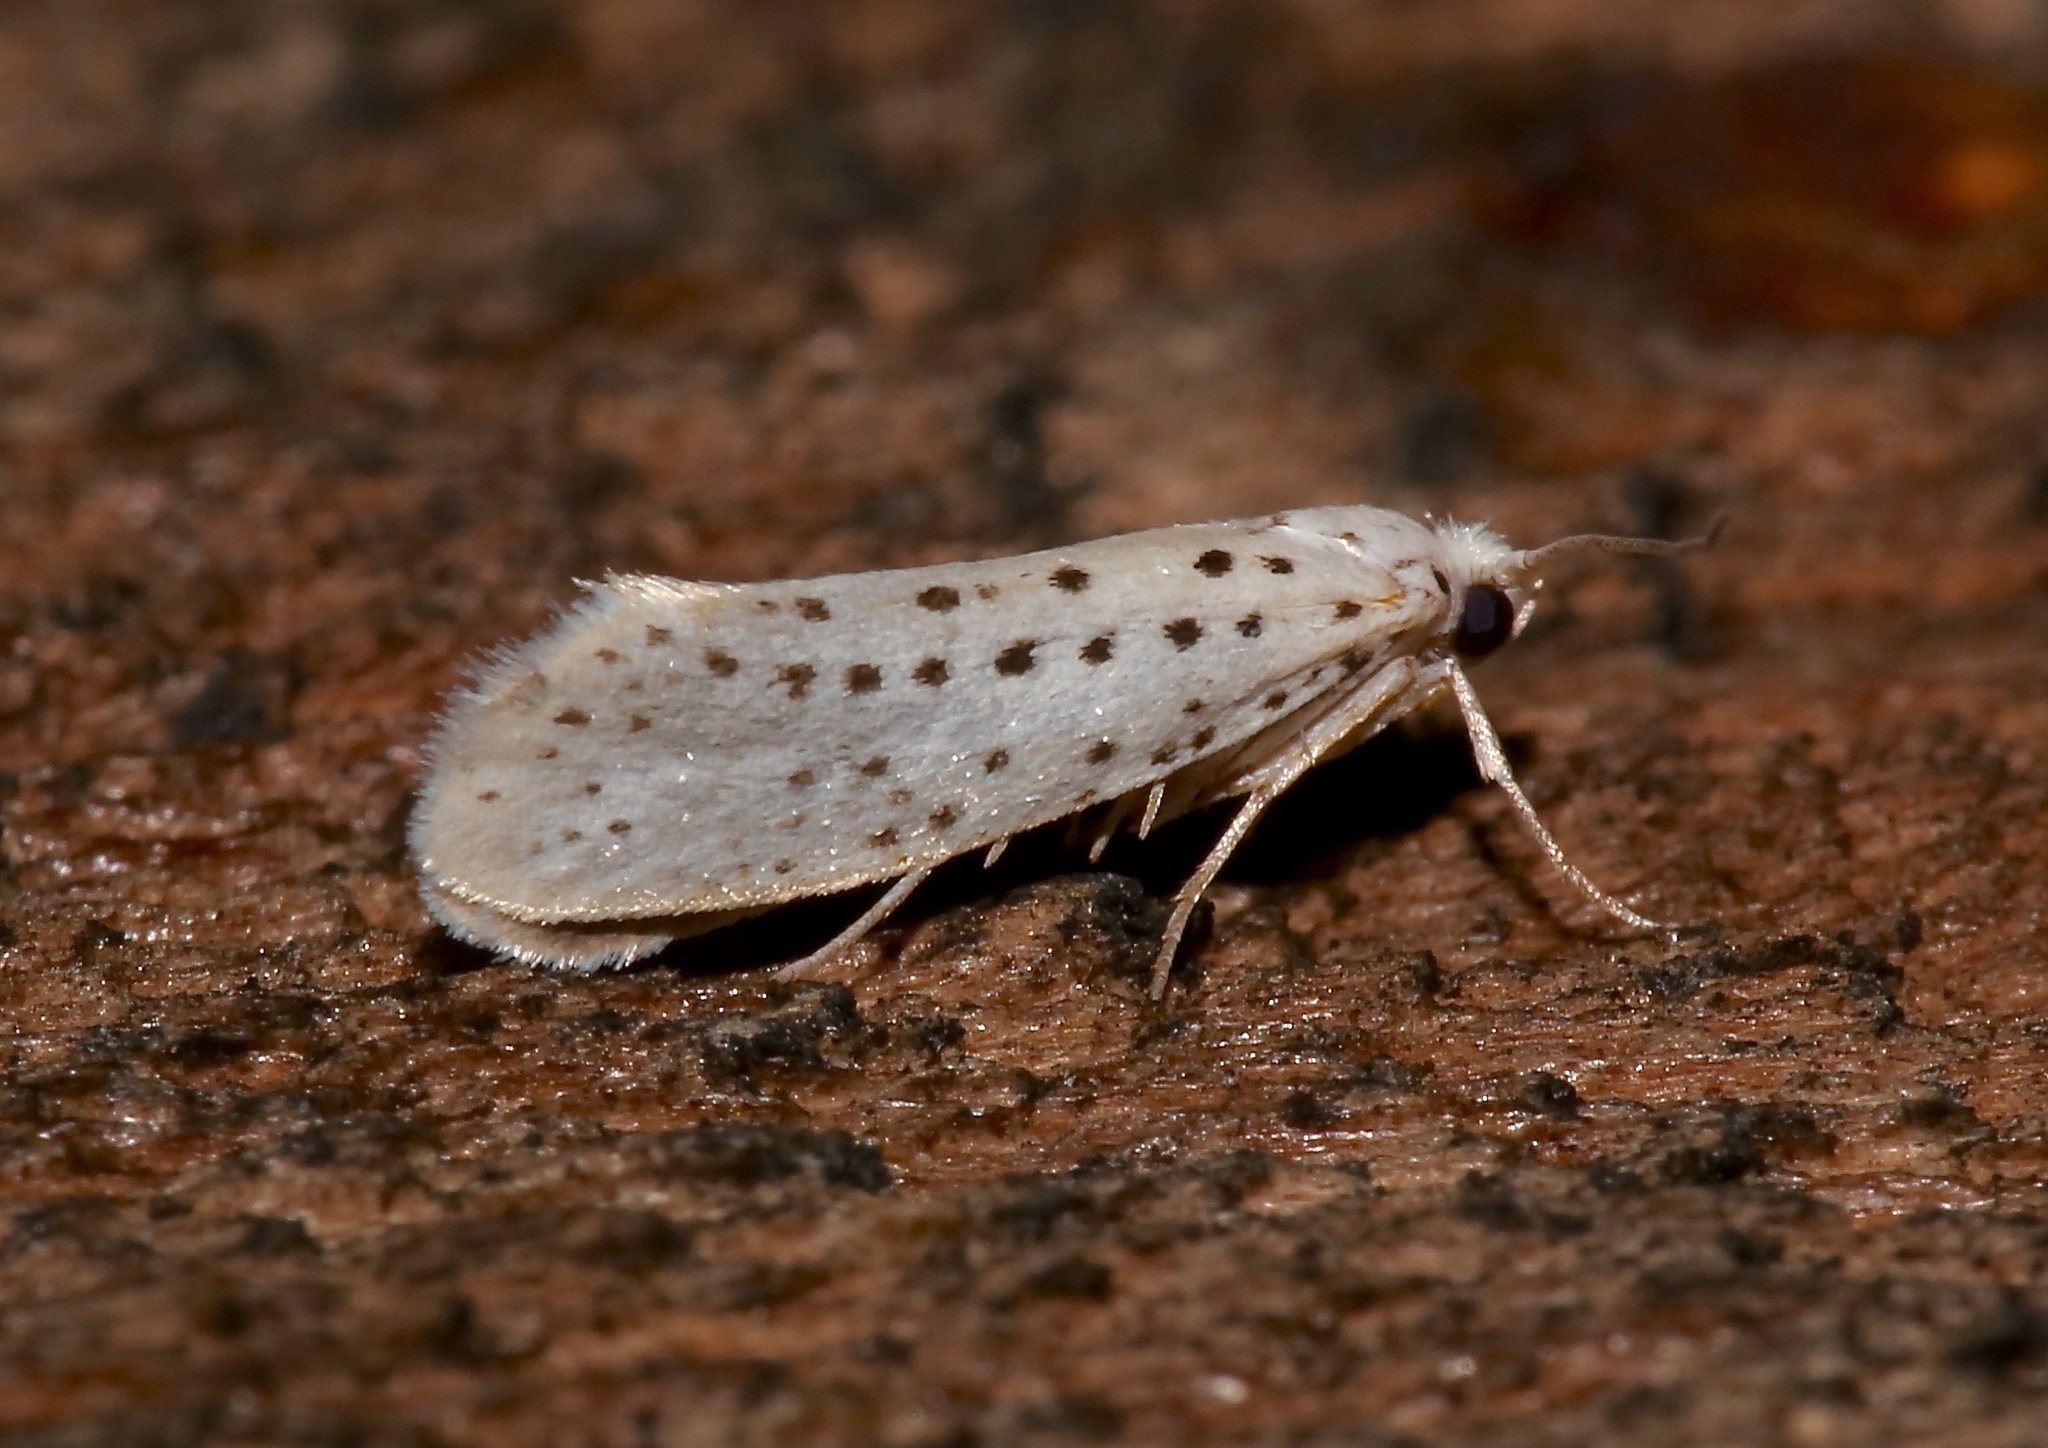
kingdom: Animalia
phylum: Arthropoda
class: Insecta
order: Lepidoptera
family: Yponomeutidae
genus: Yponomeuta
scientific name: Yponomeuta multipunctella
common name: American ermine moth
